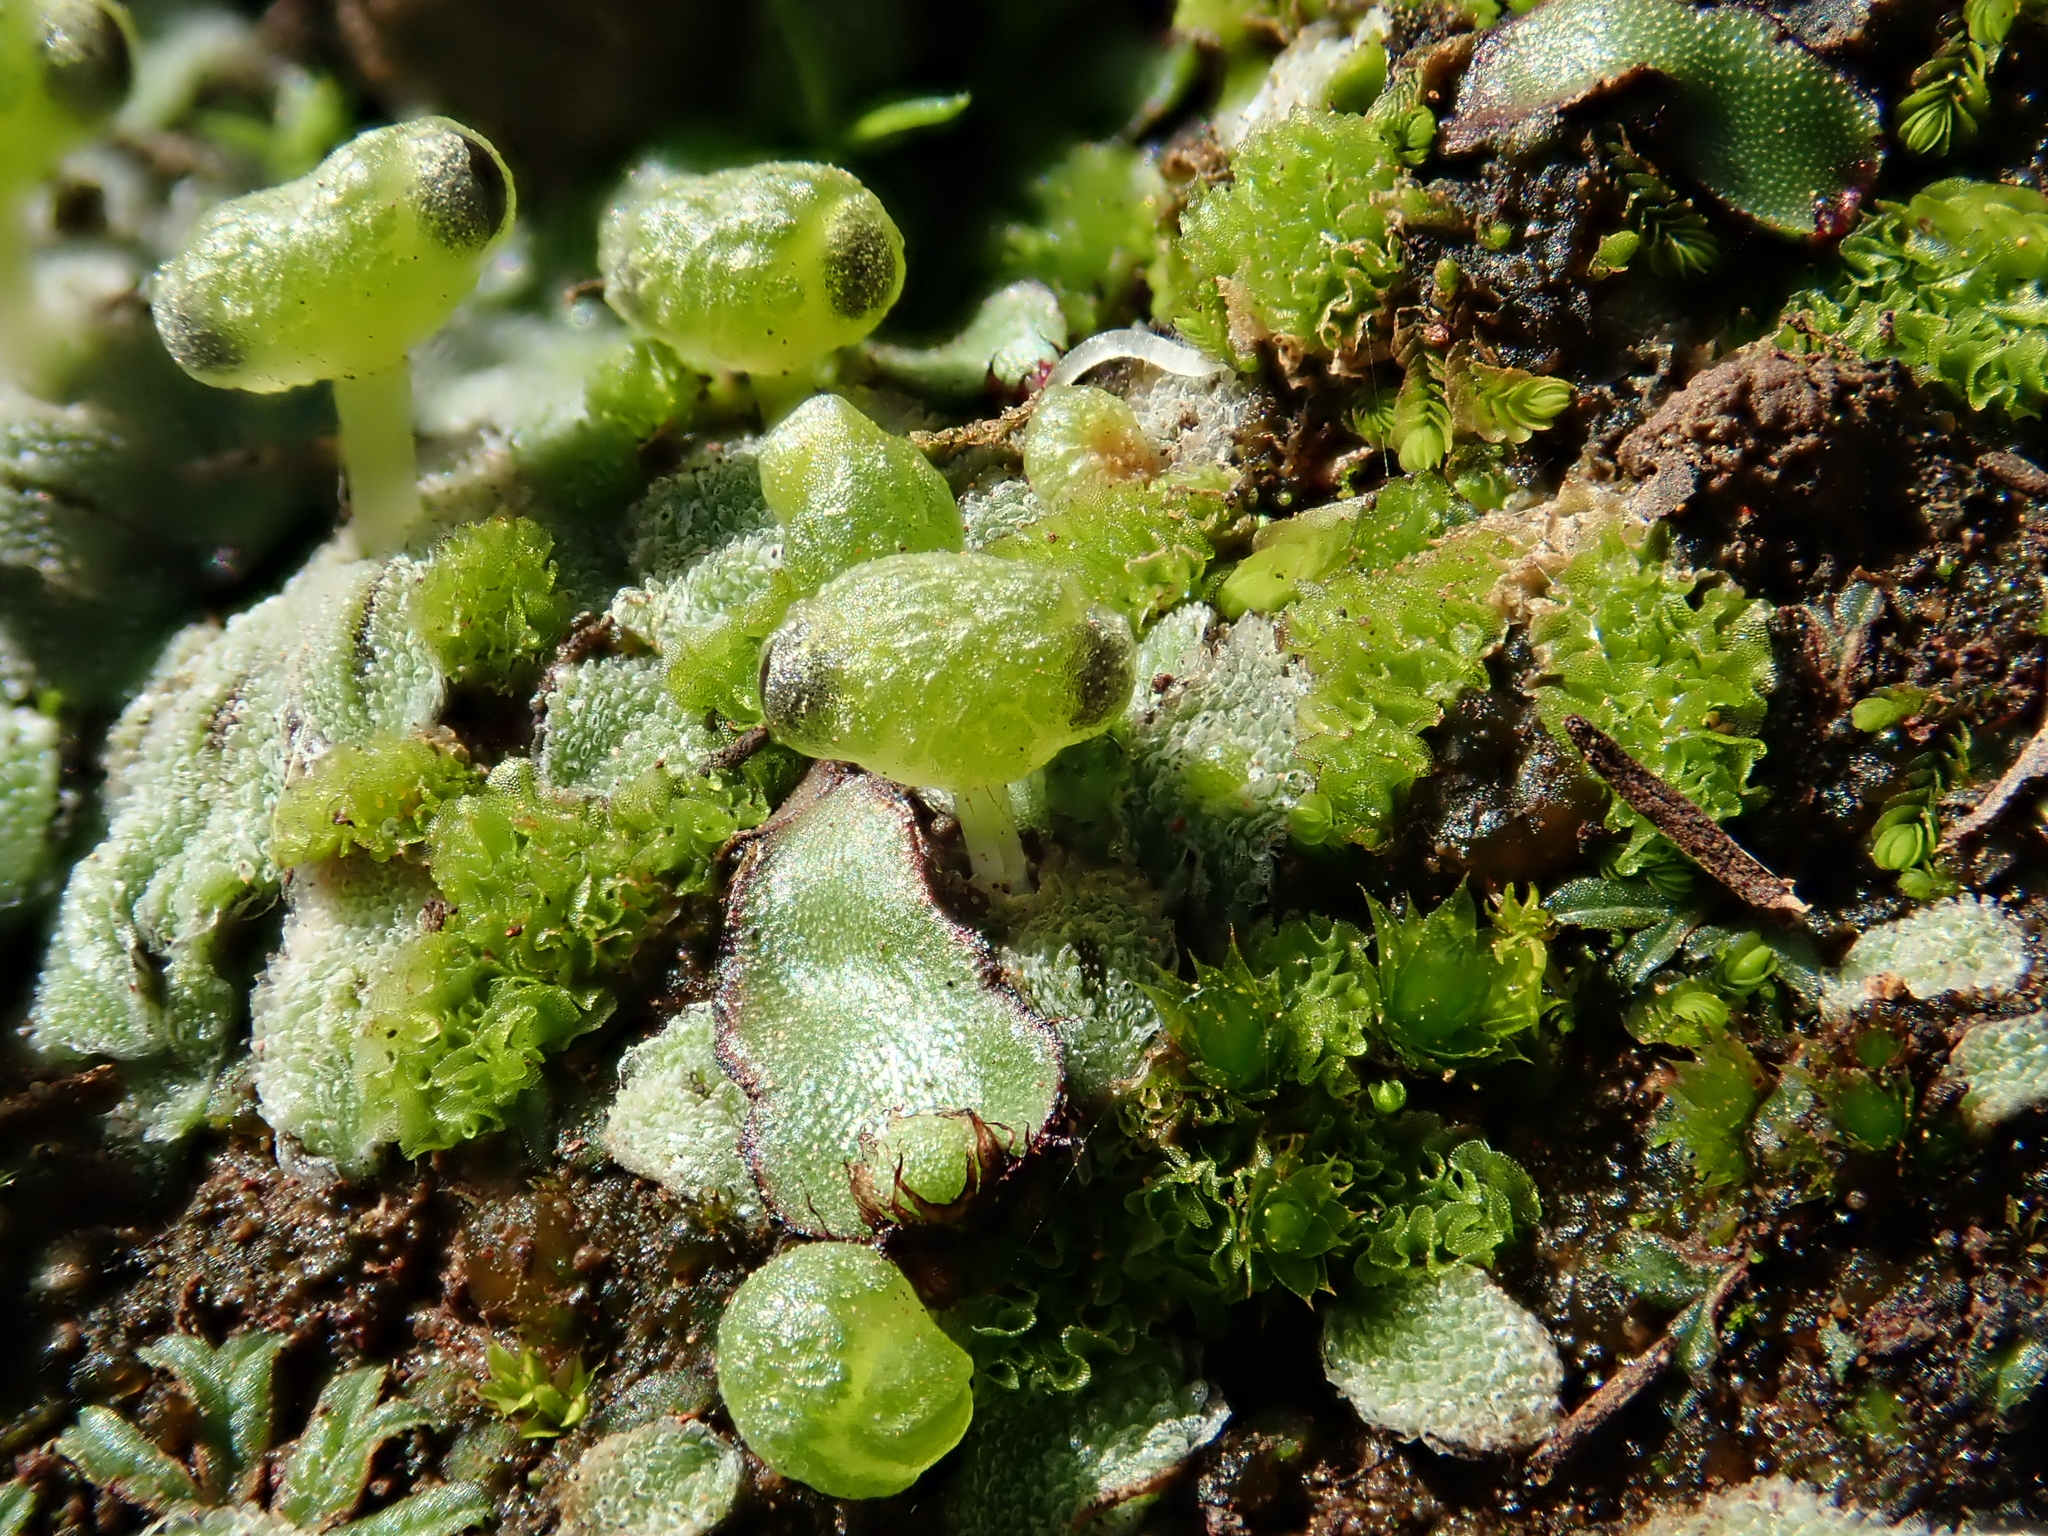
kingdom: Plantae
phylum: Marchantiophyta
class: Marchantiopsida
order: Marchantiales
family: Corsiniaceae
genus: Exormotheca
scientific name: Exormotheca pustulosa
